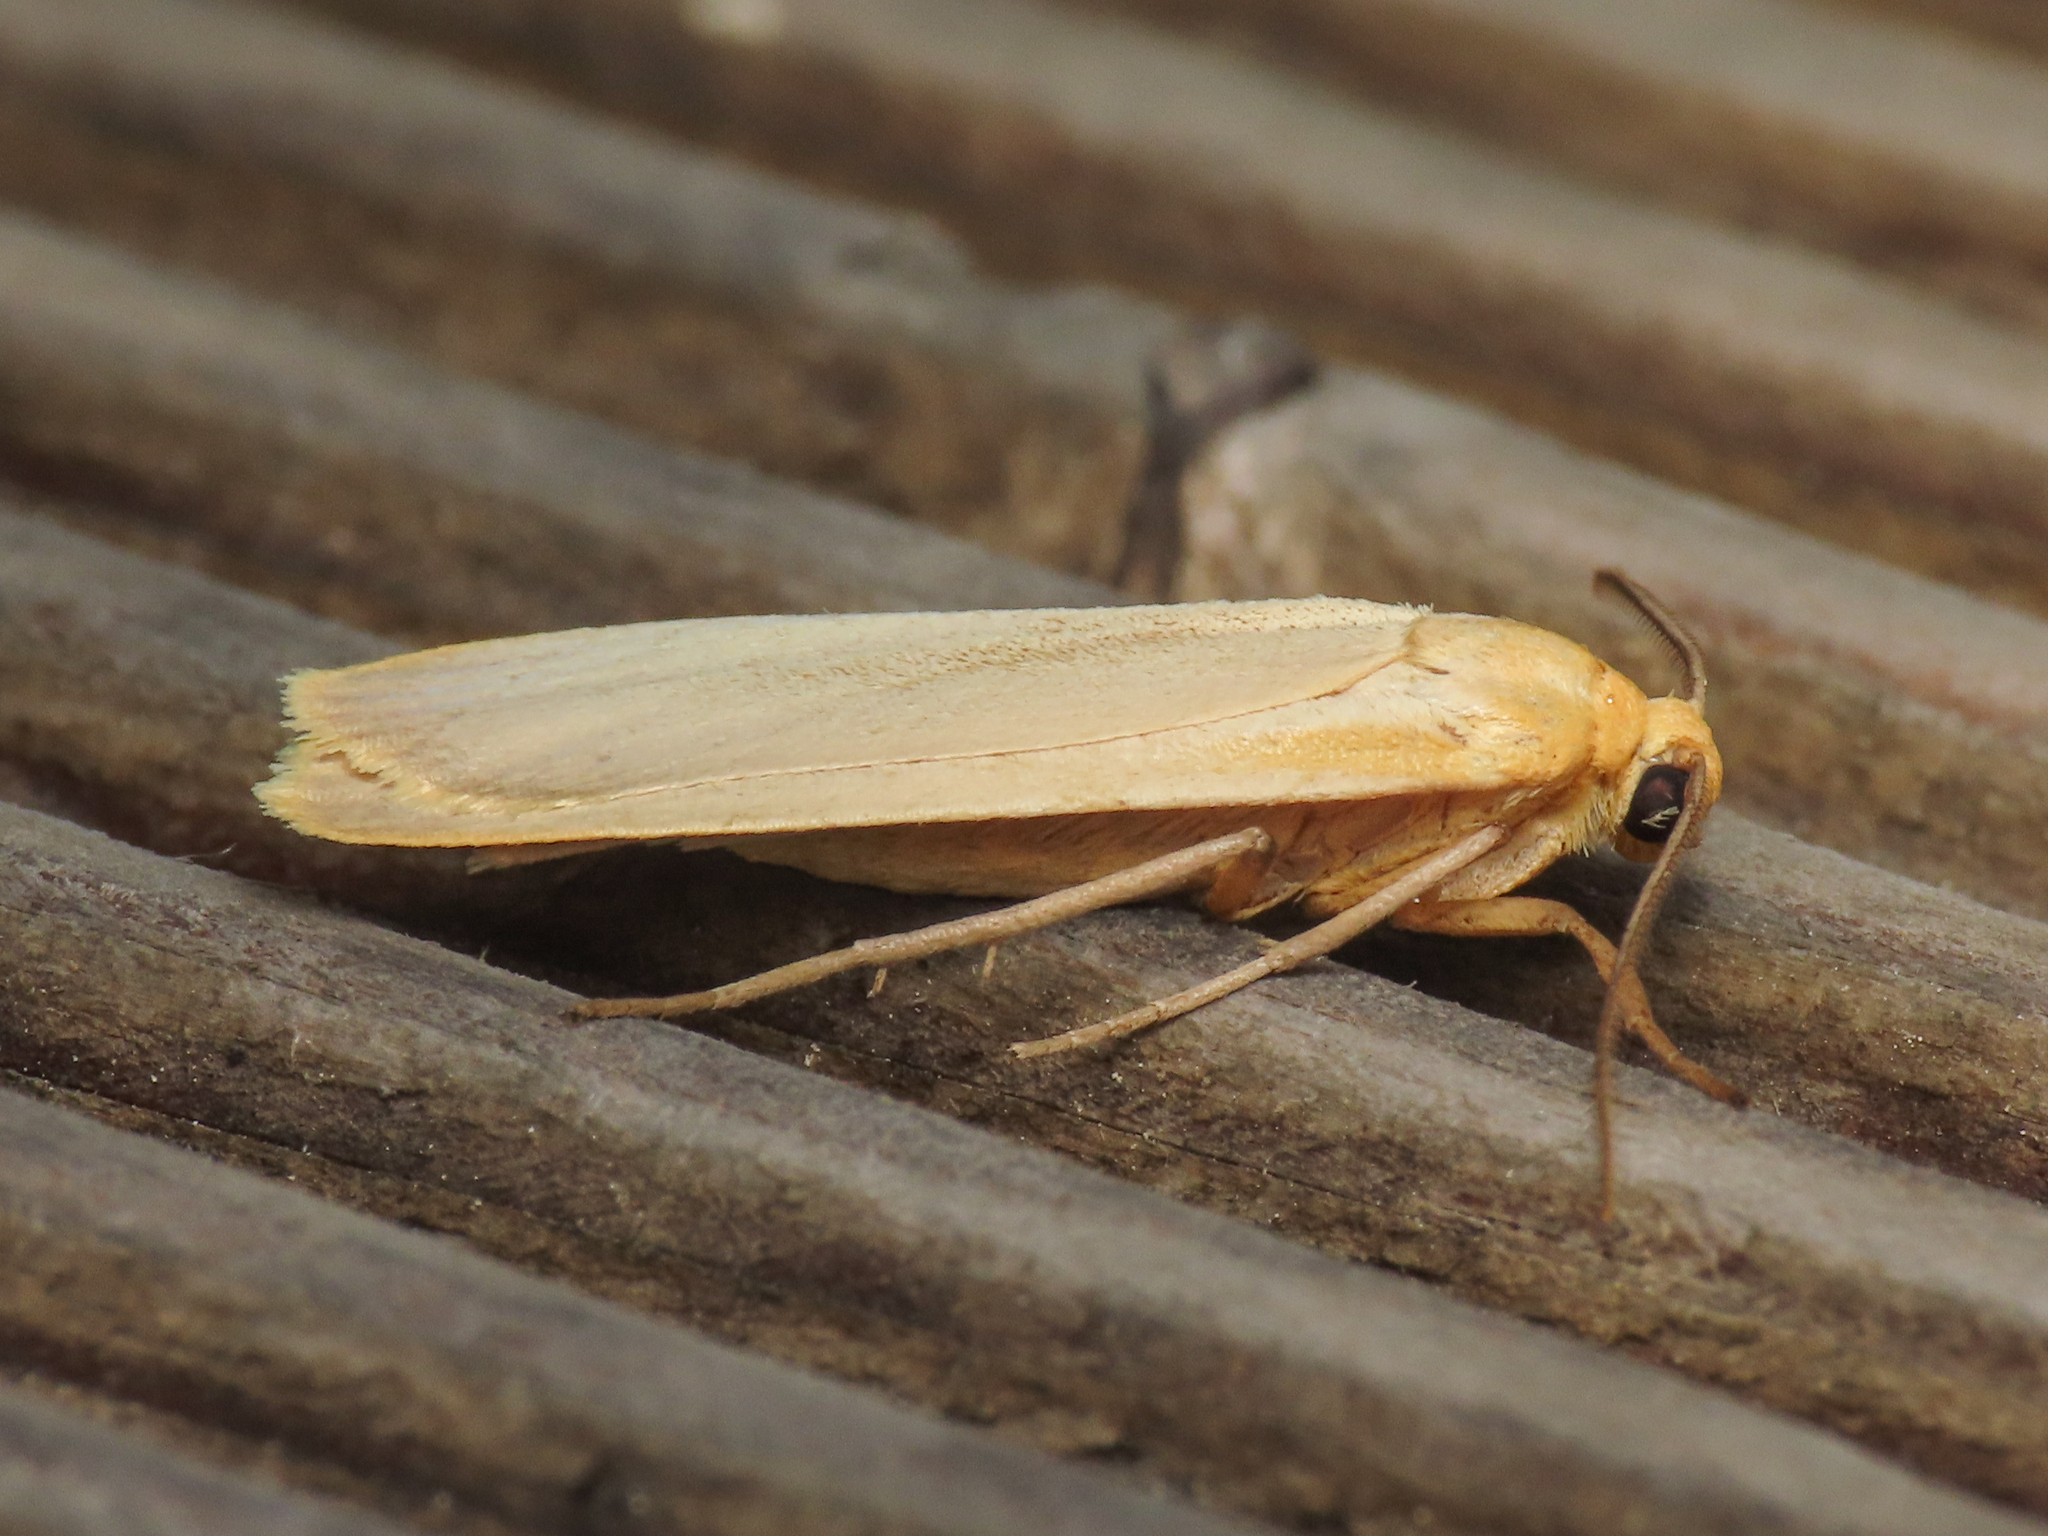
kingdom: Animalia
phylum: Arthropoda
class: Insecta
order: Lepidoptera
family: Erebidae
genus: Katha
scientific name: Katha depressa
